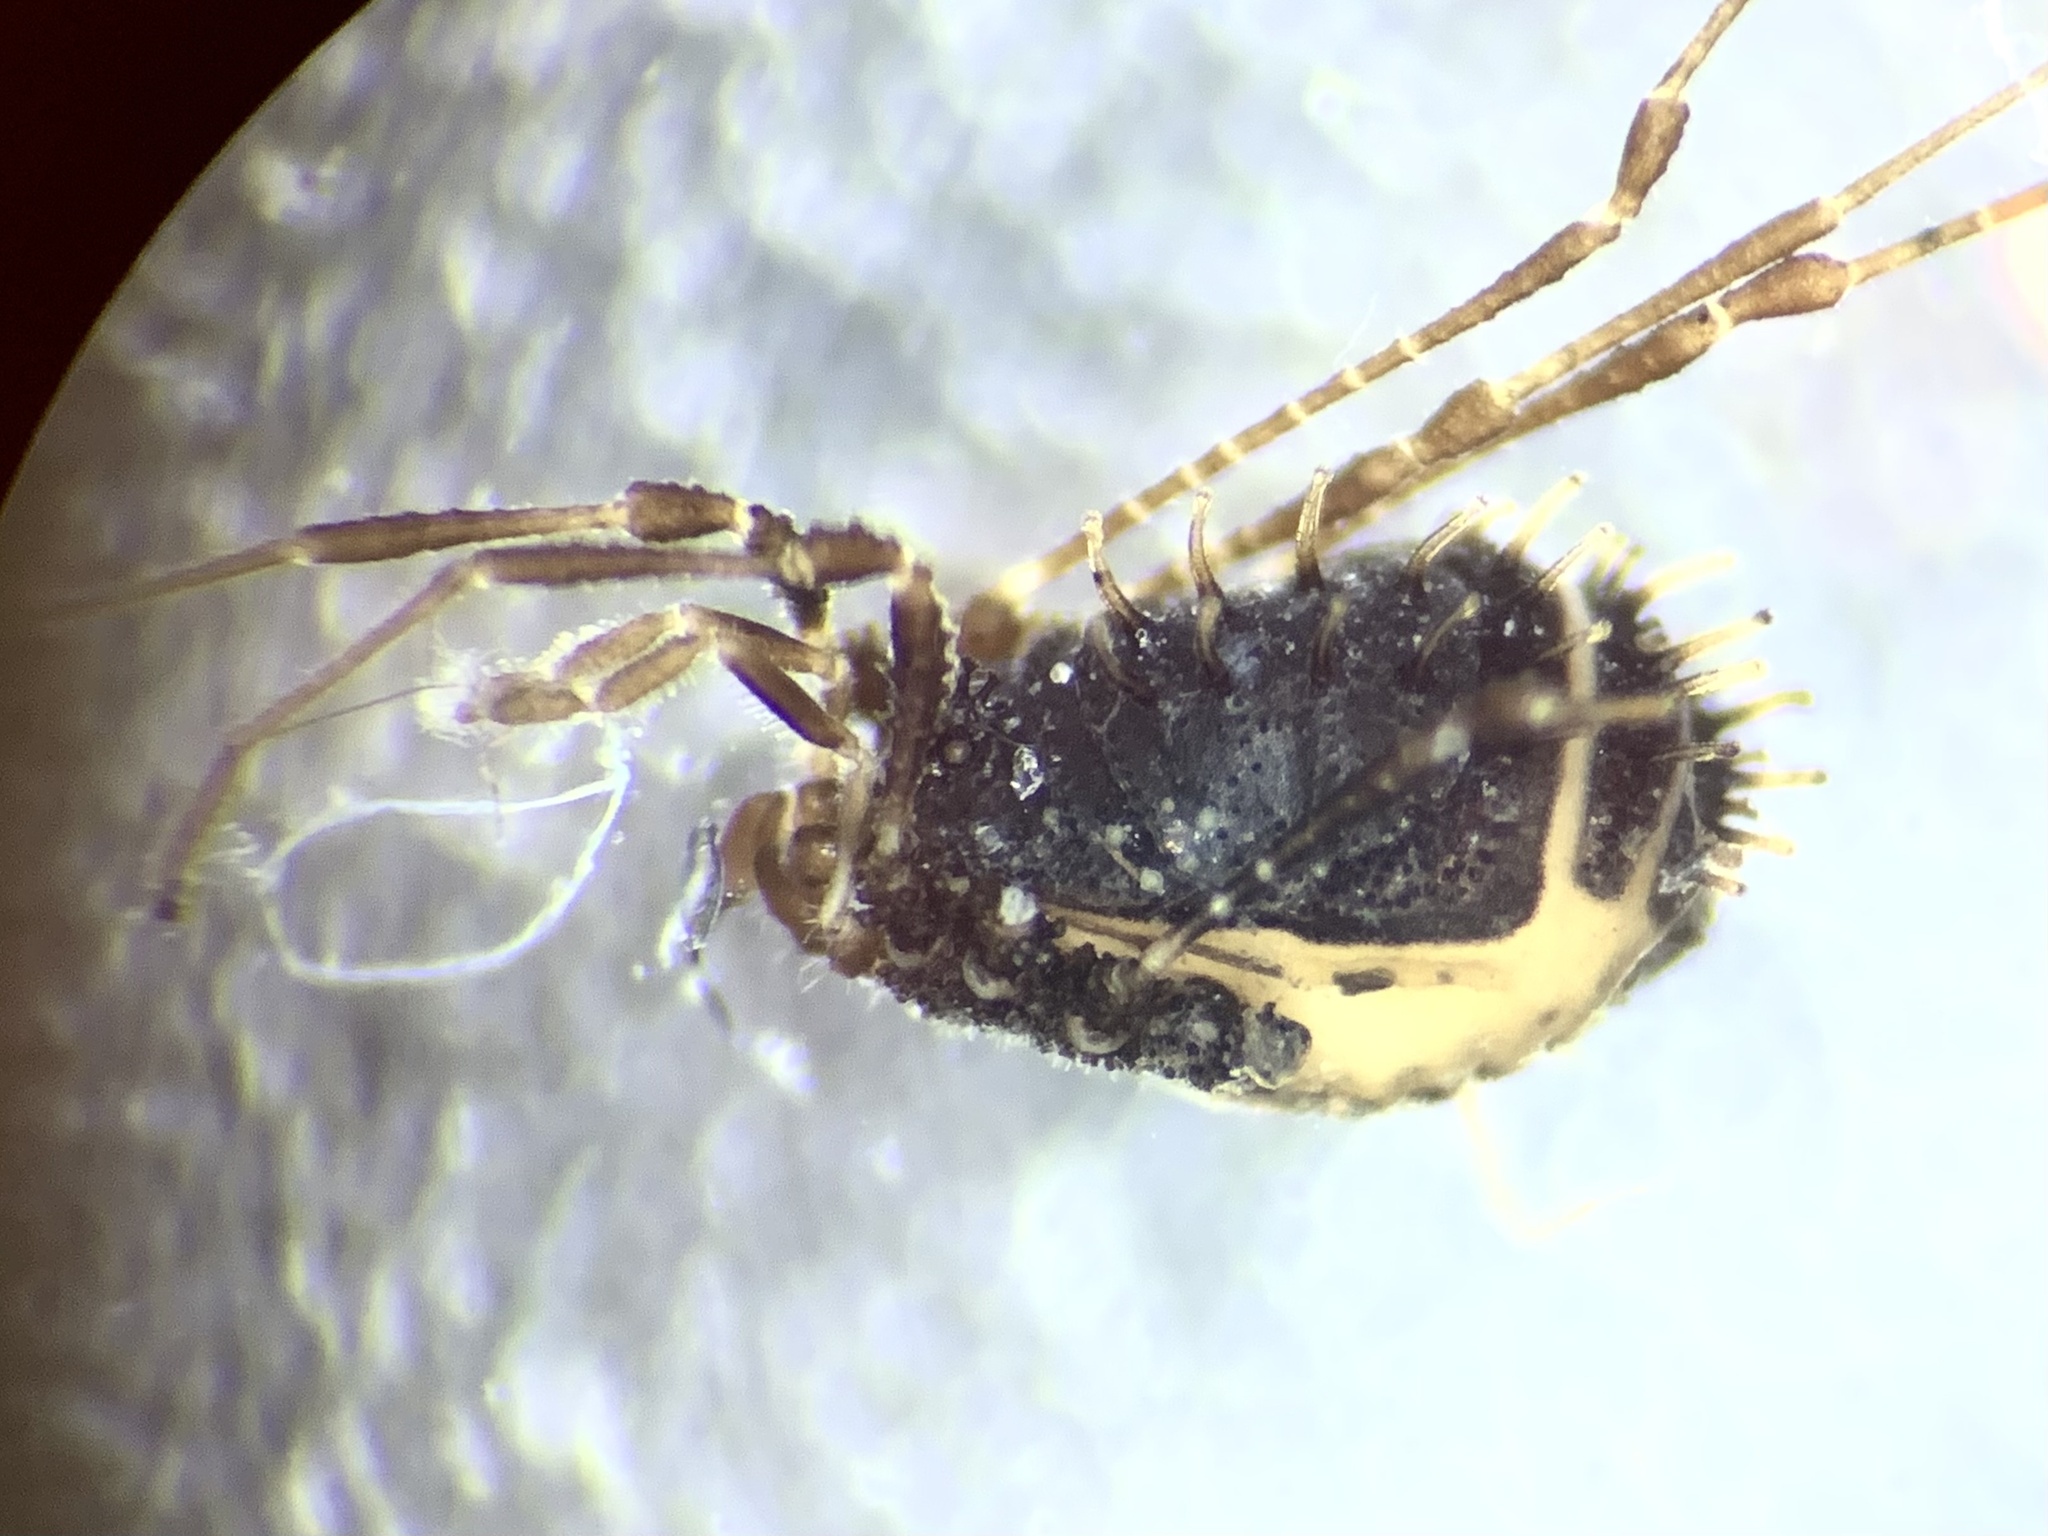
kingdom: Animalia
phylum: Arthropoda
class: Arachnida
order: Opiliones
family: Nemastomatidae
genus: Centetostoma
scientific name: Centetostoma centetes
